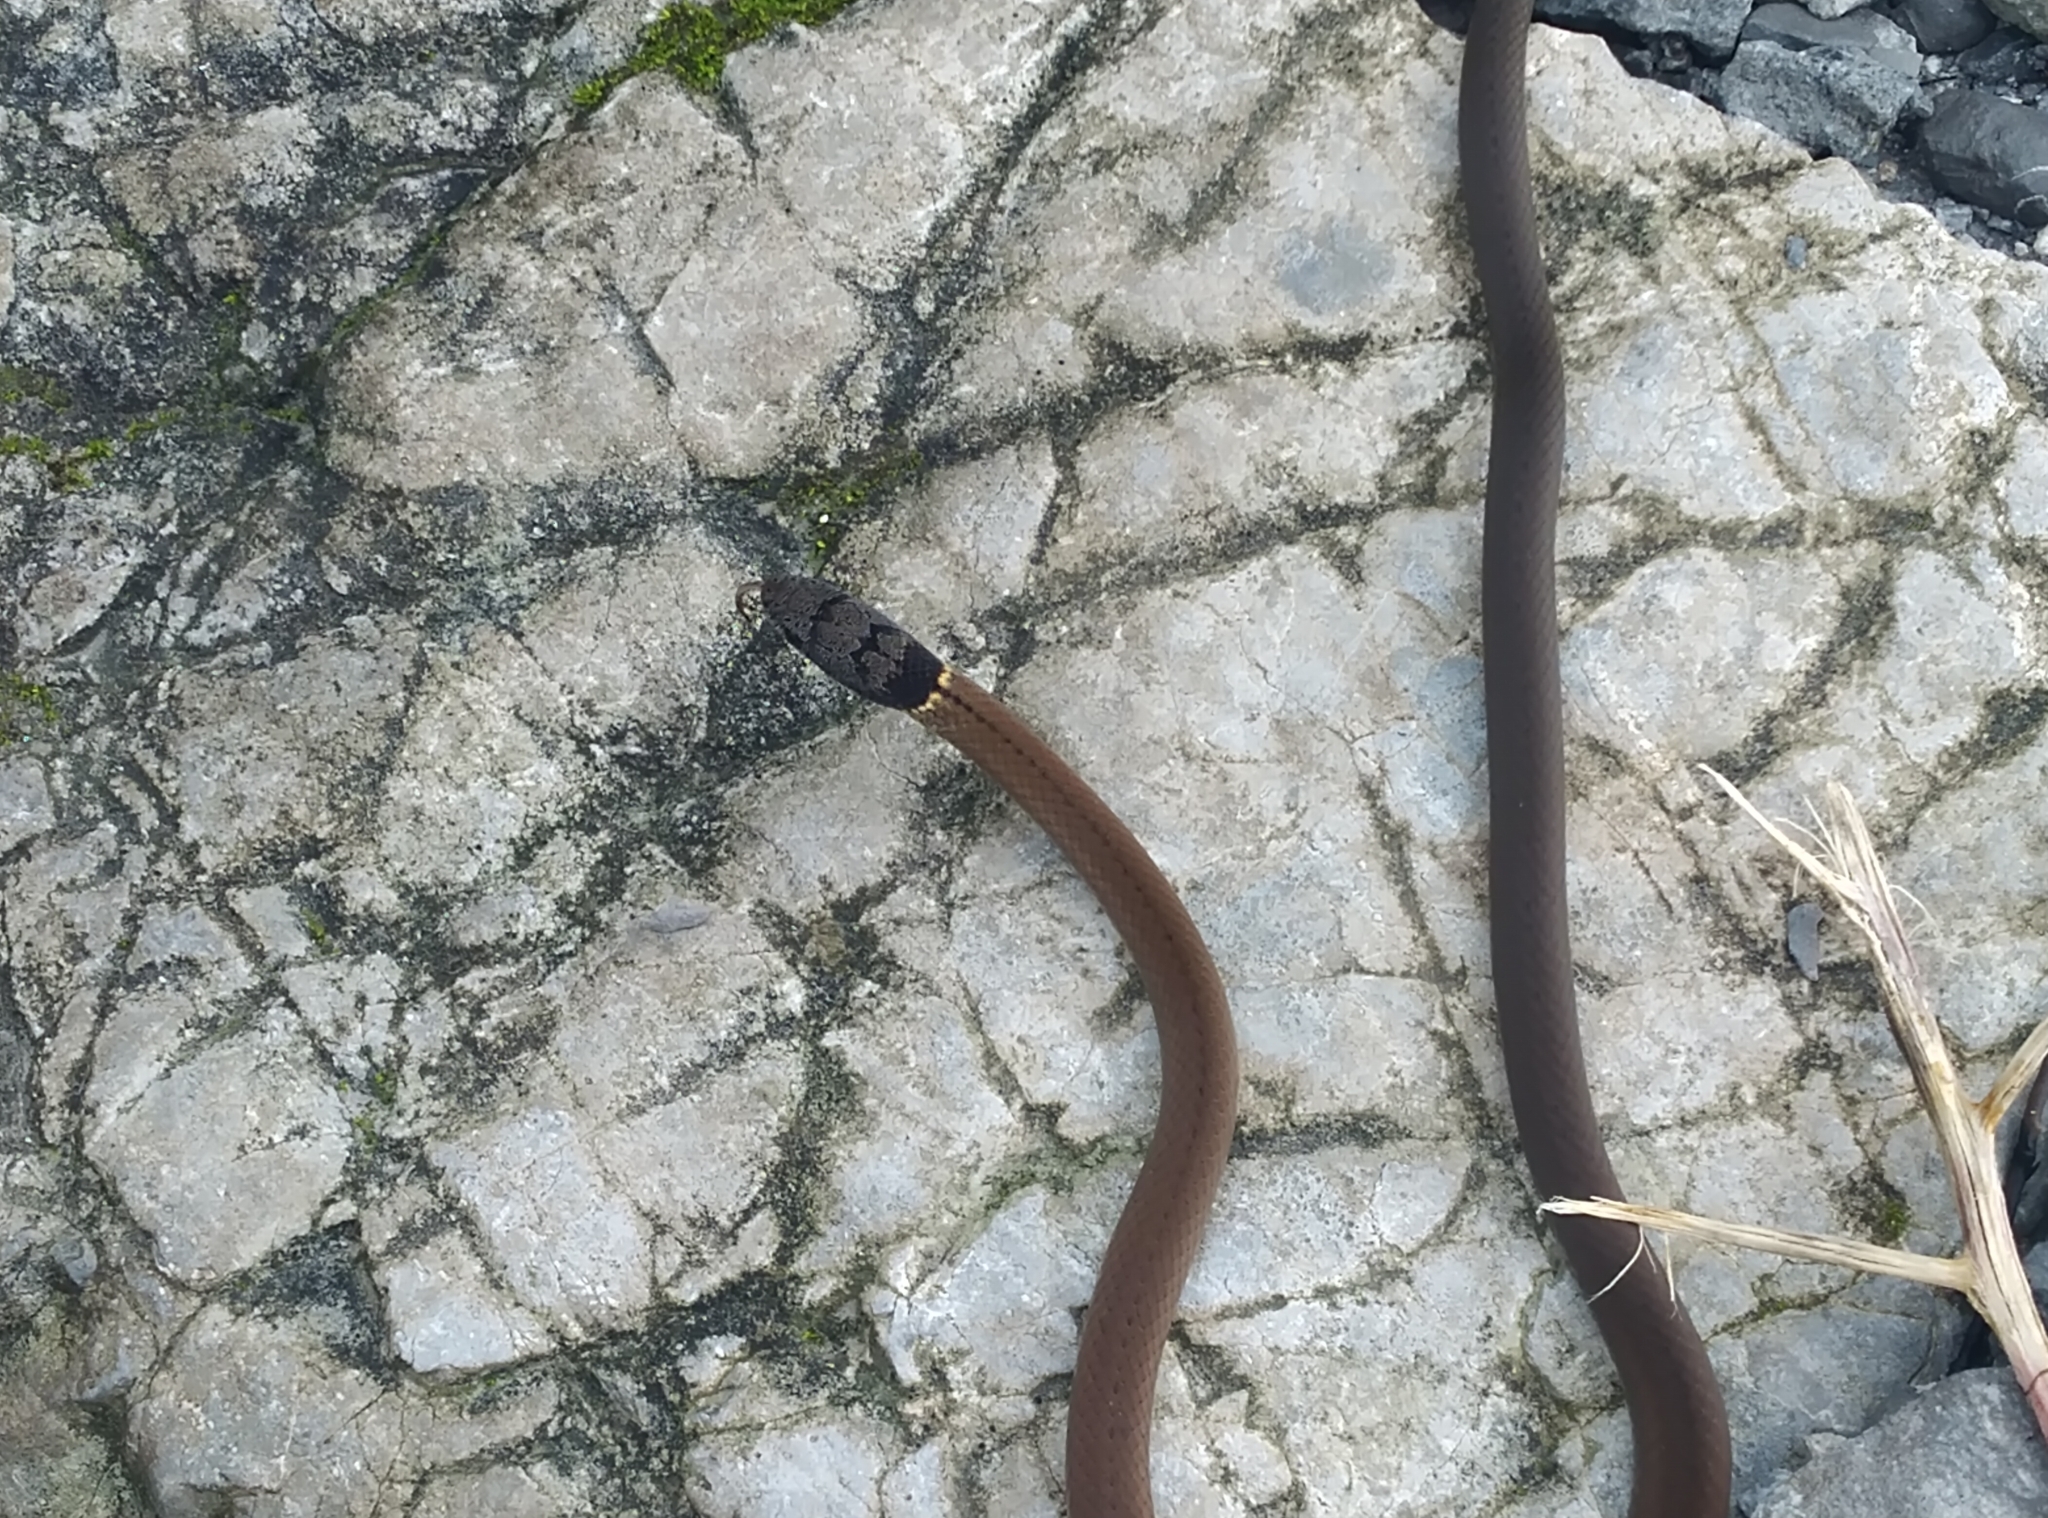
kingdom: Animalia
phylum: Chordata
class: Squamata
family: Colubridae
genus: Sibynophis
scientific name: Sibynophis collaris
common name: Common many-tooth snake
